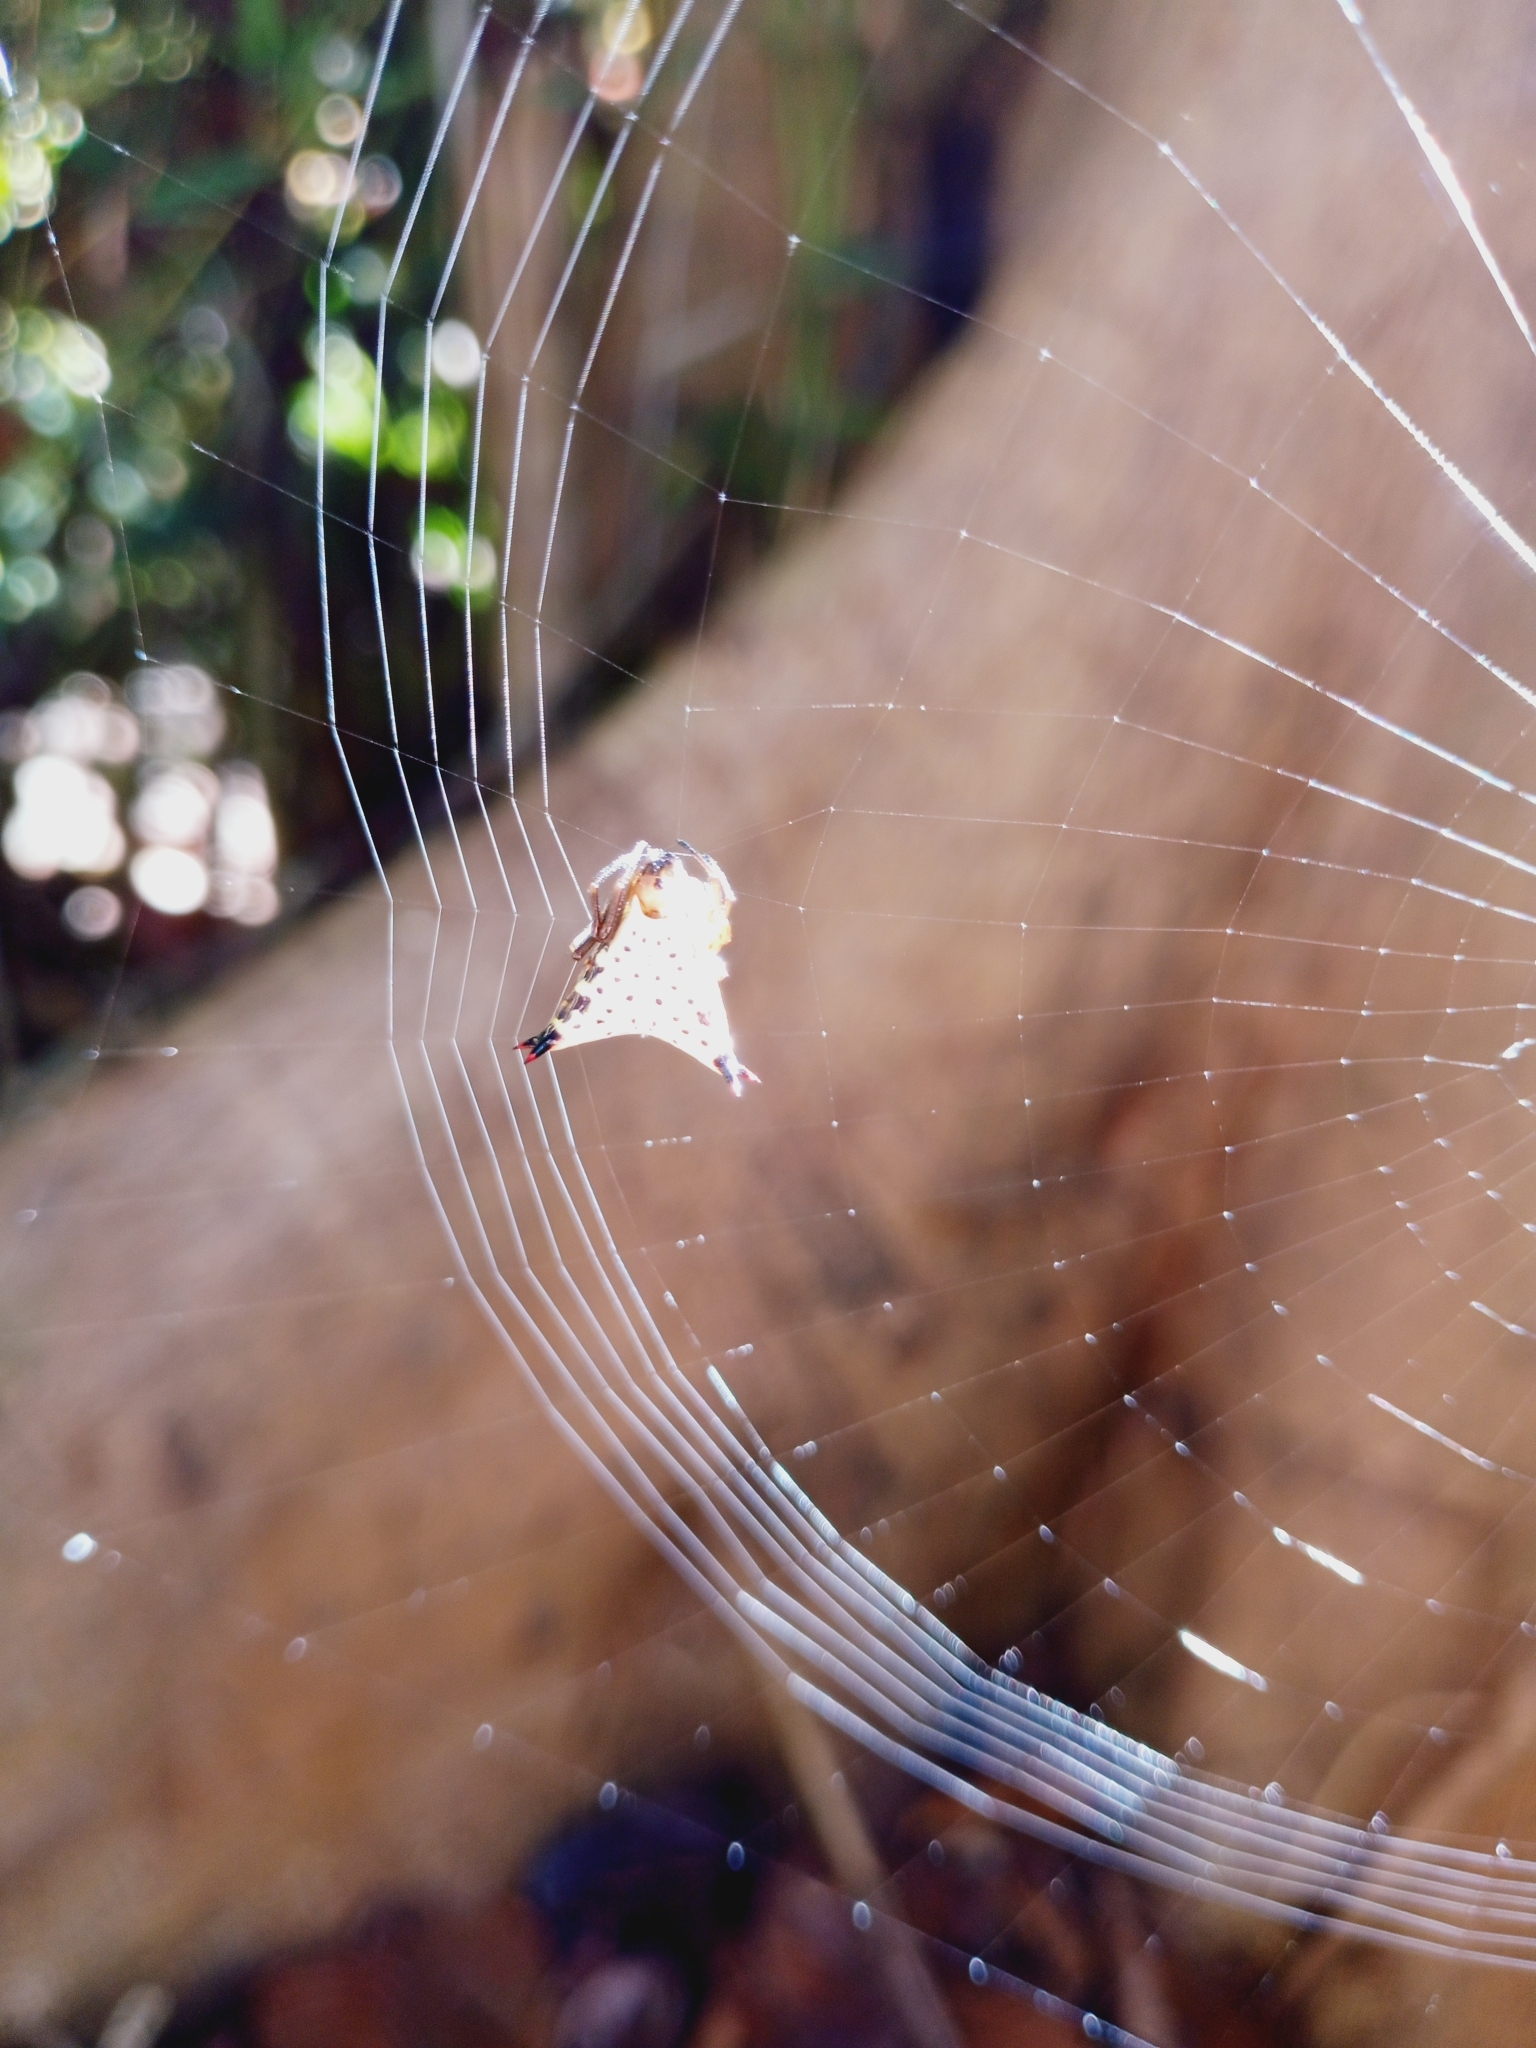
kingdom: Animalia
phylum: Arthropoda
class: Arachnida
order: Araneae
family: Araneidae
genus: Micrathena
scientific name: Micrathena lucasi
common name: Orb weavers
